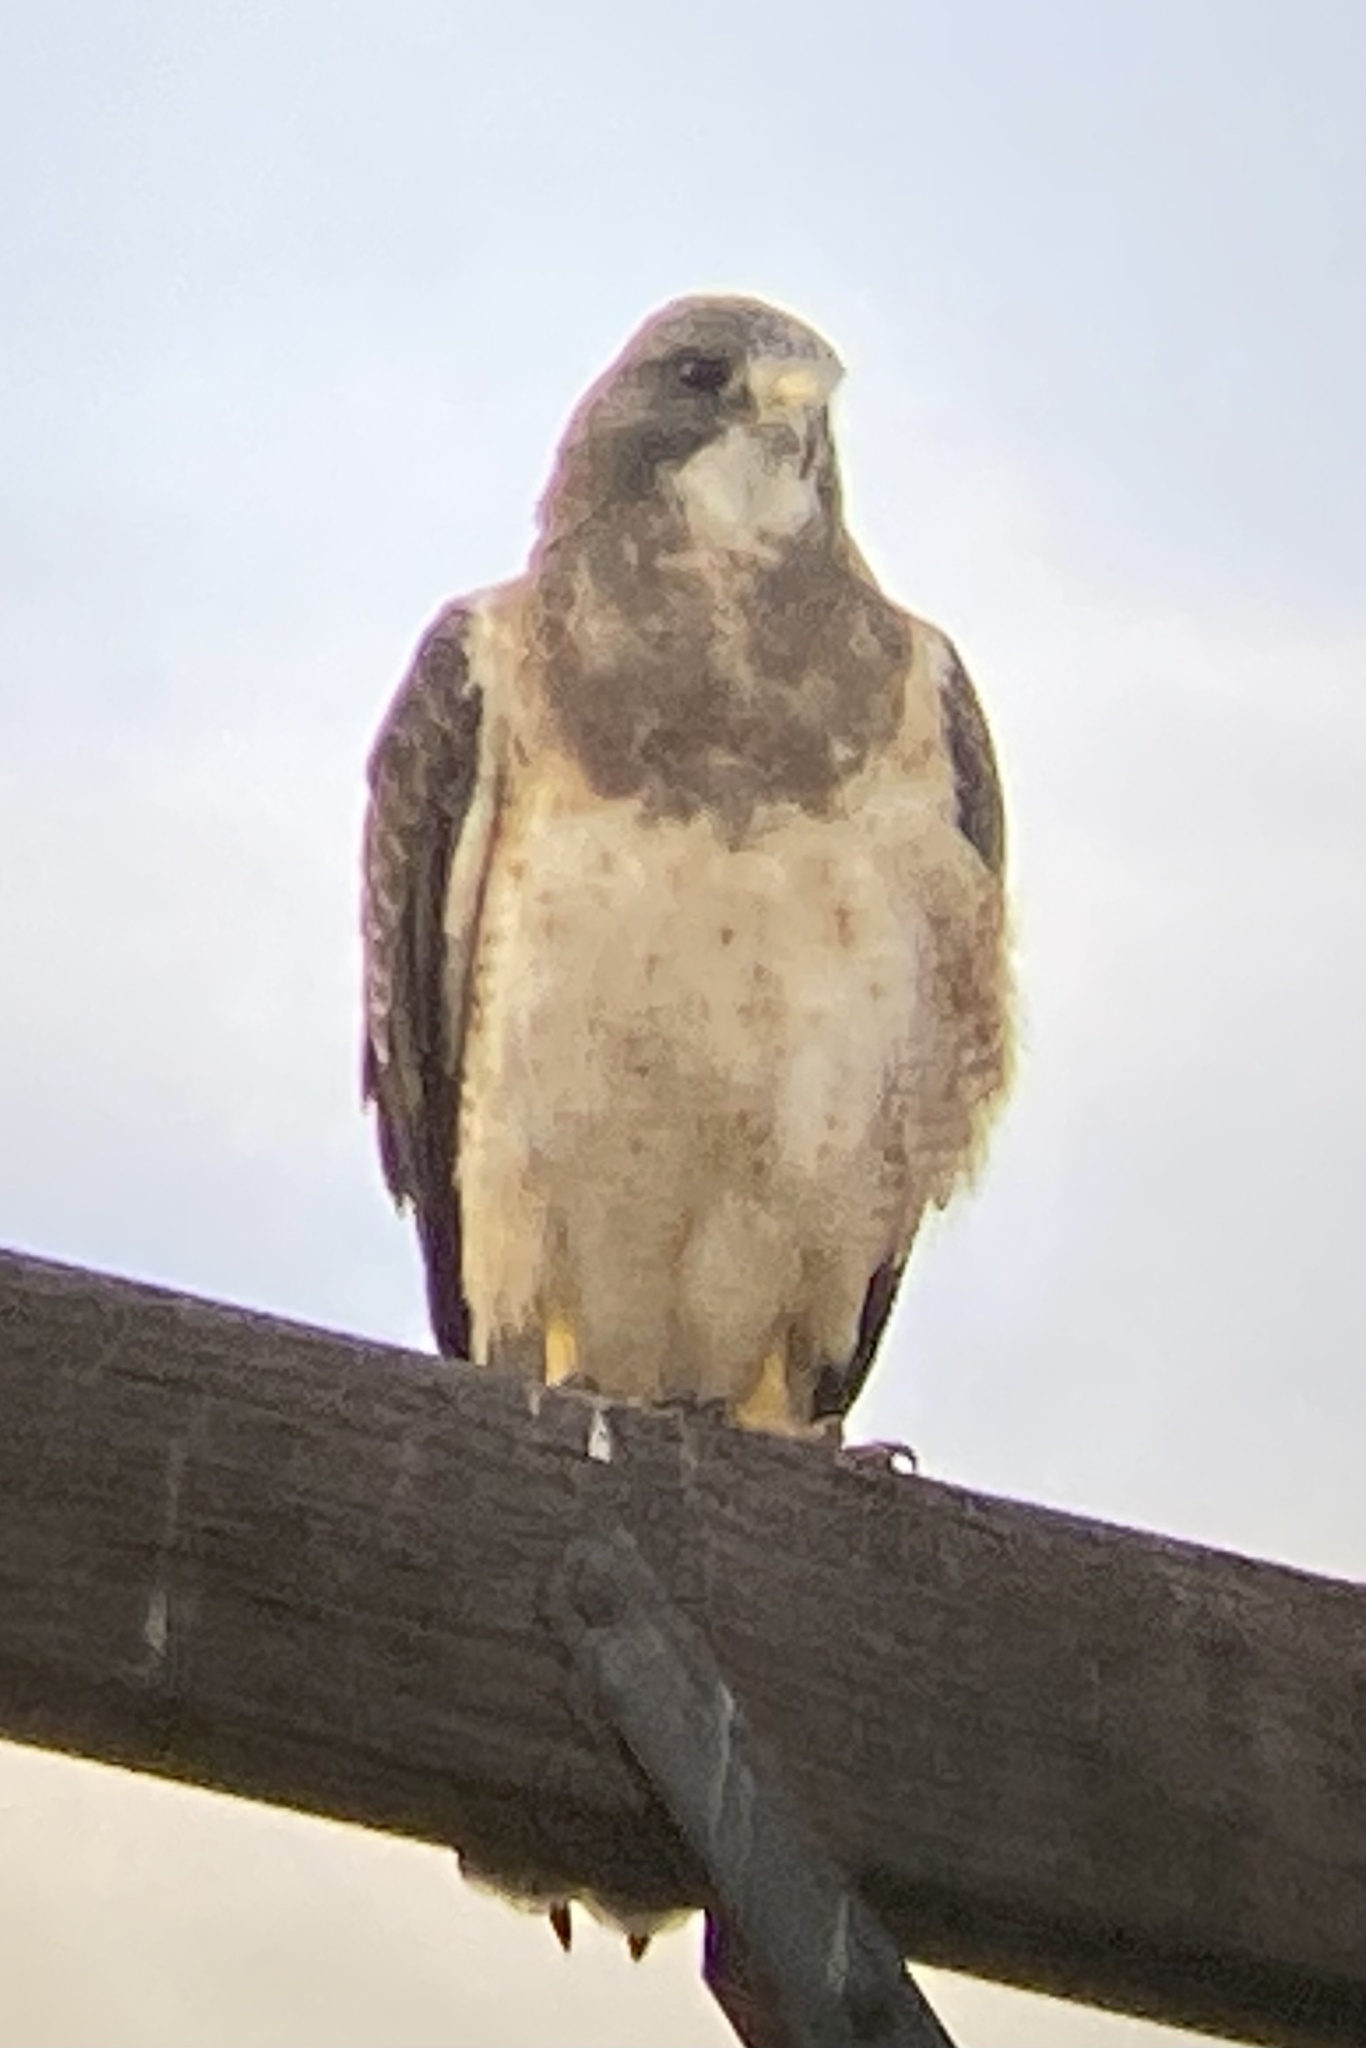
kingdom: Animalia
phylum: Chordata
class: Aves
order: Accipitriformes
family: Accipitridae
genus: Buteo
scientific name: Buteo swainsoni
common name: Swainson's hawk
